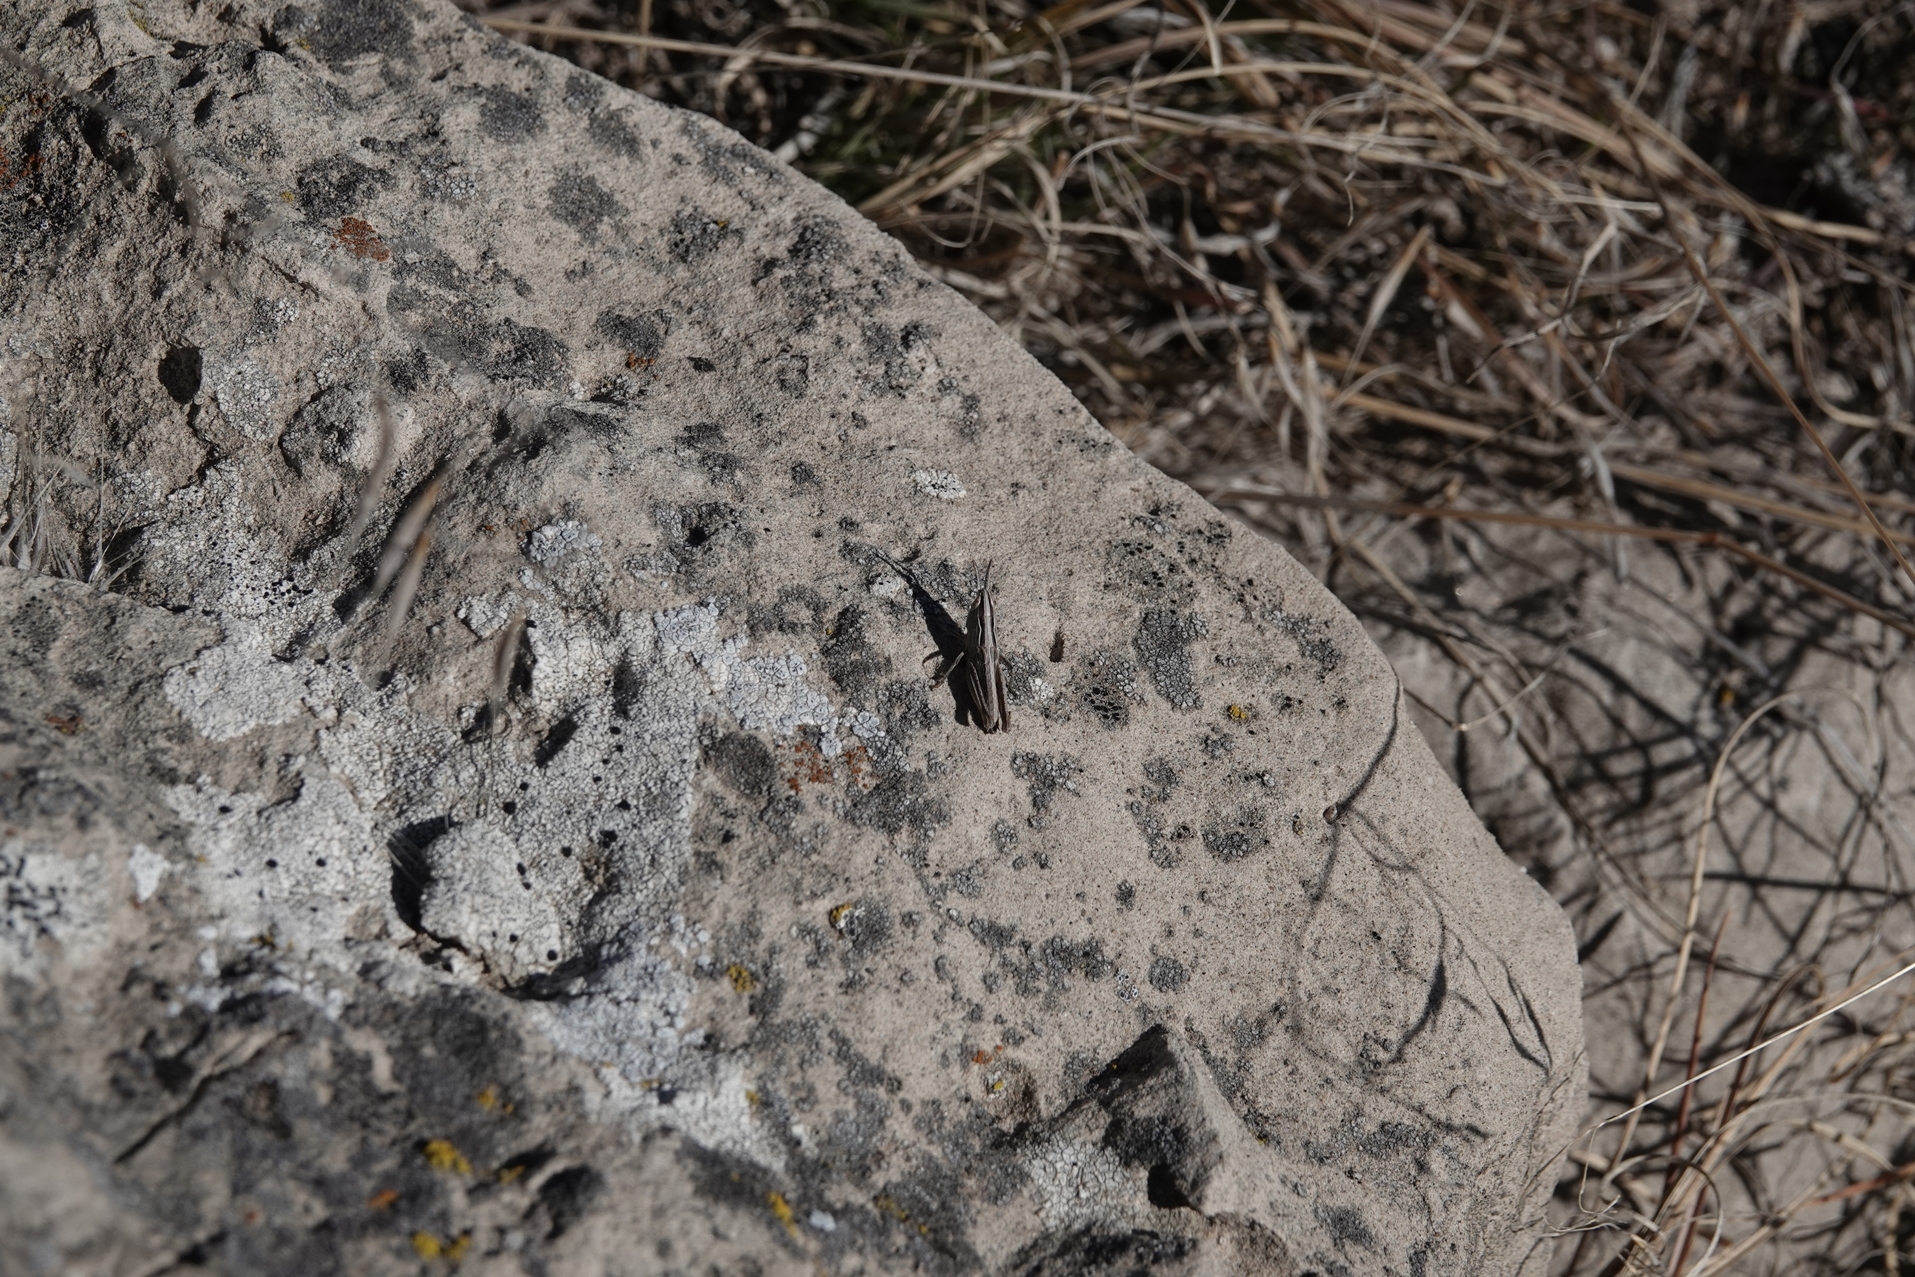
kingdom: Animalia
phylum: Arthropoda
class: Insecta
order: Orthoptera
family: Acrididae
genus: Eritettix
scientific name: Eritettix simplex
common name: Velvet-striped grasshopper
